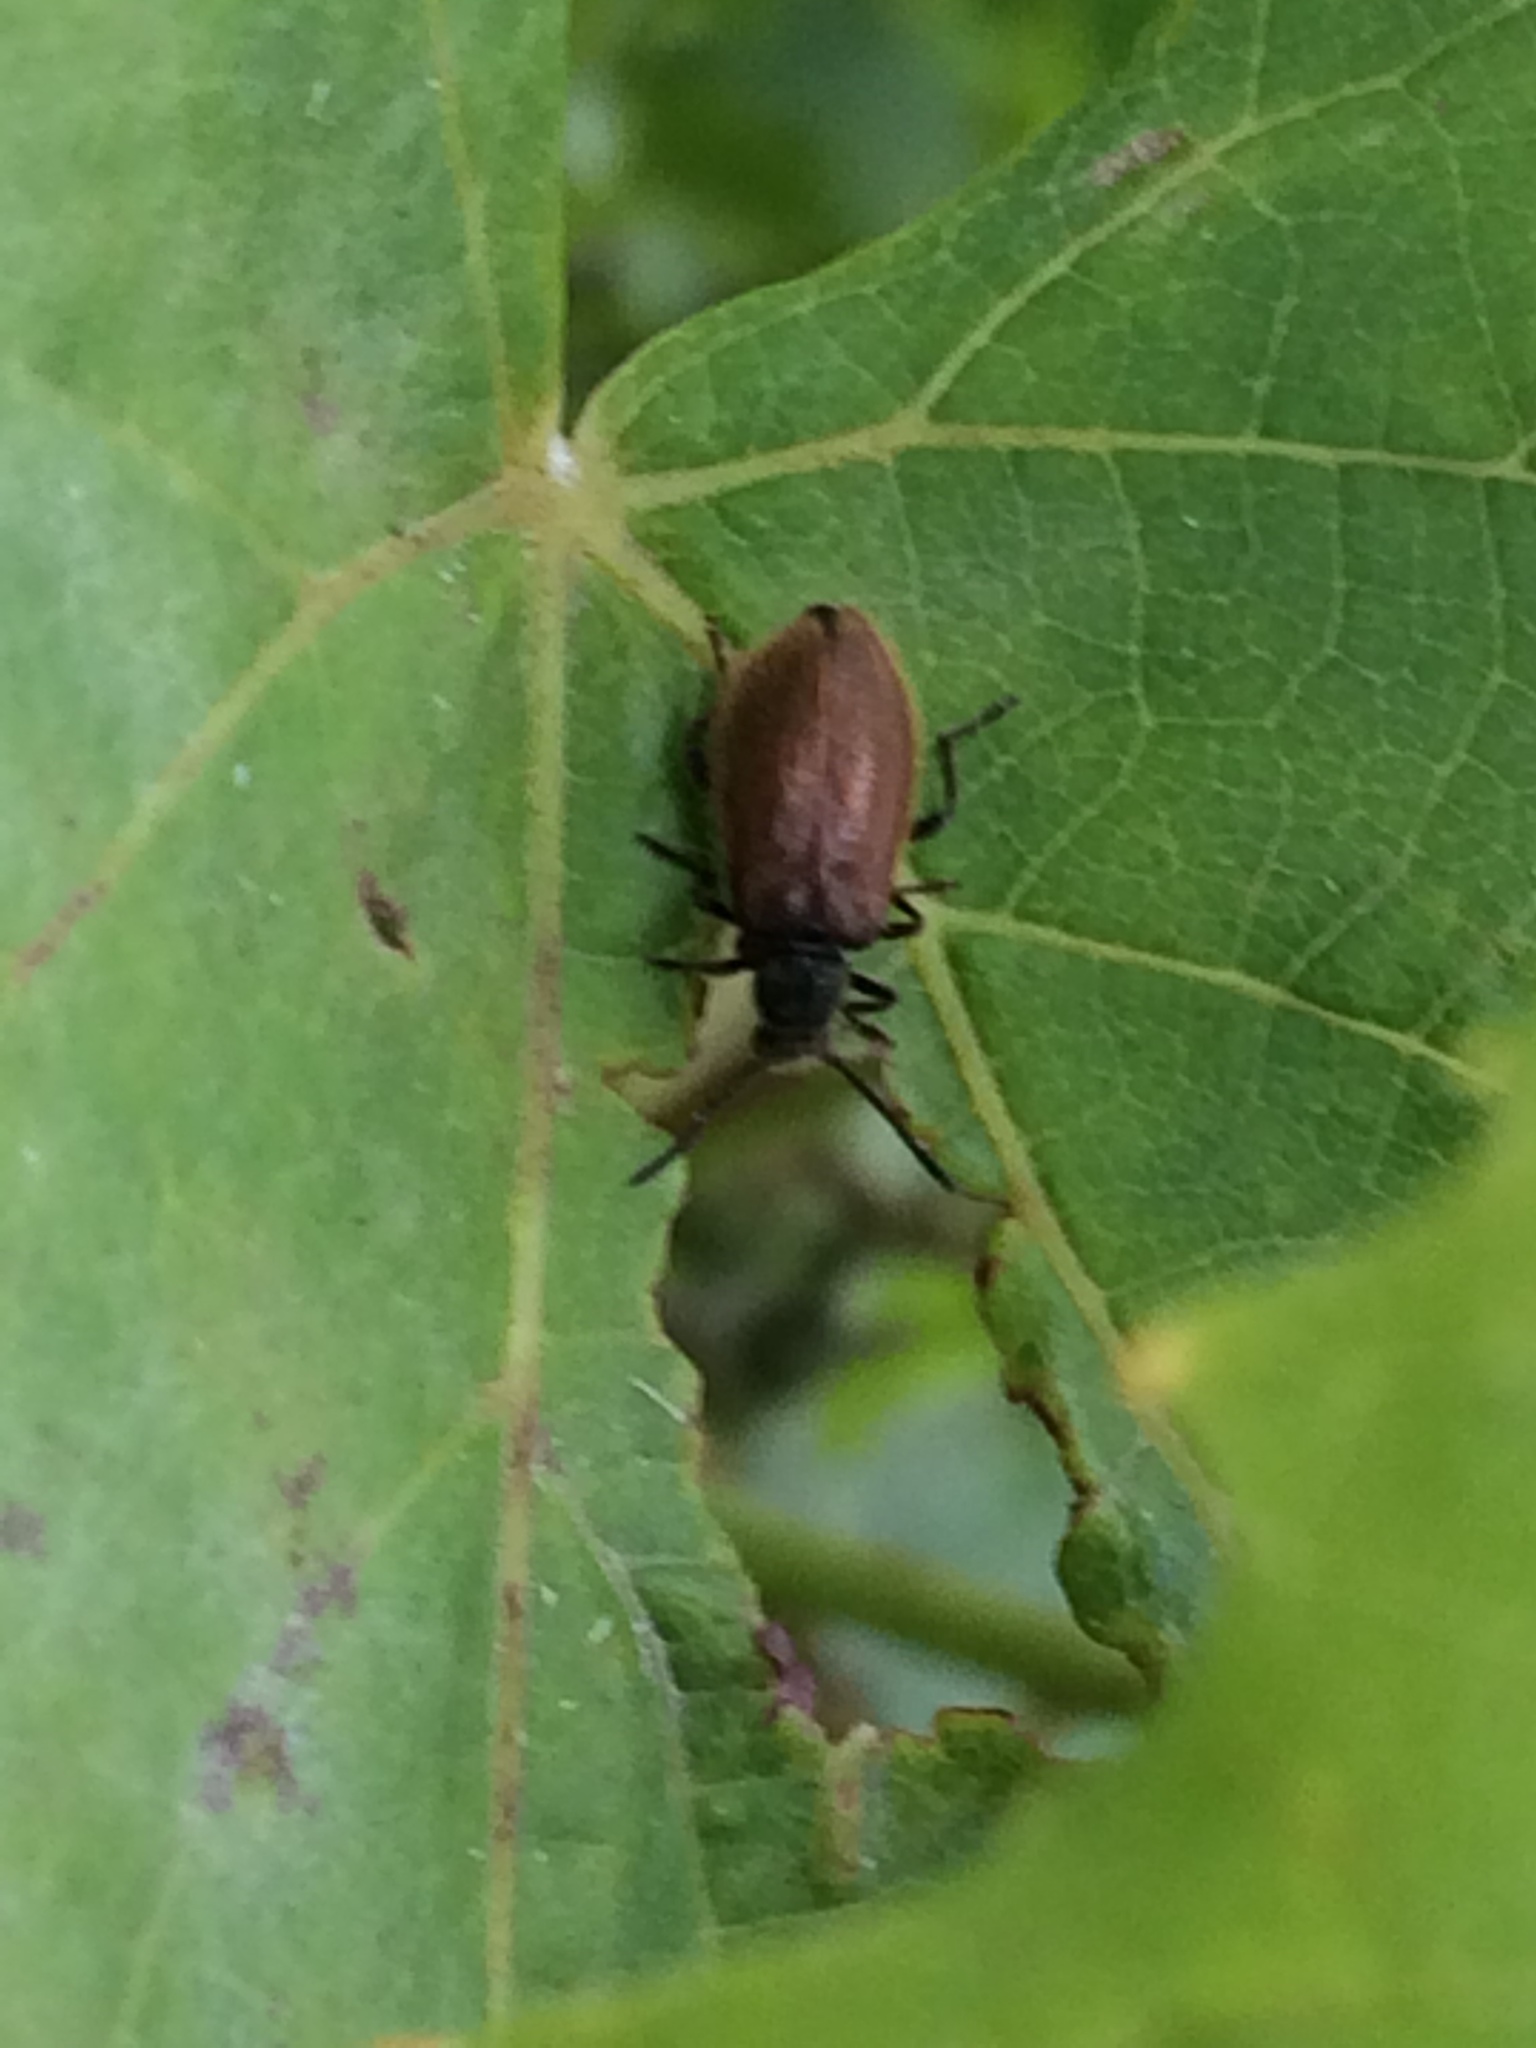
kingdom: Animalia
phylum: Arthropoda
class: Insecta
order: Coleoptera
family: Tenebrionidae
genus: Lagria
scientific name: Lagria hirta
